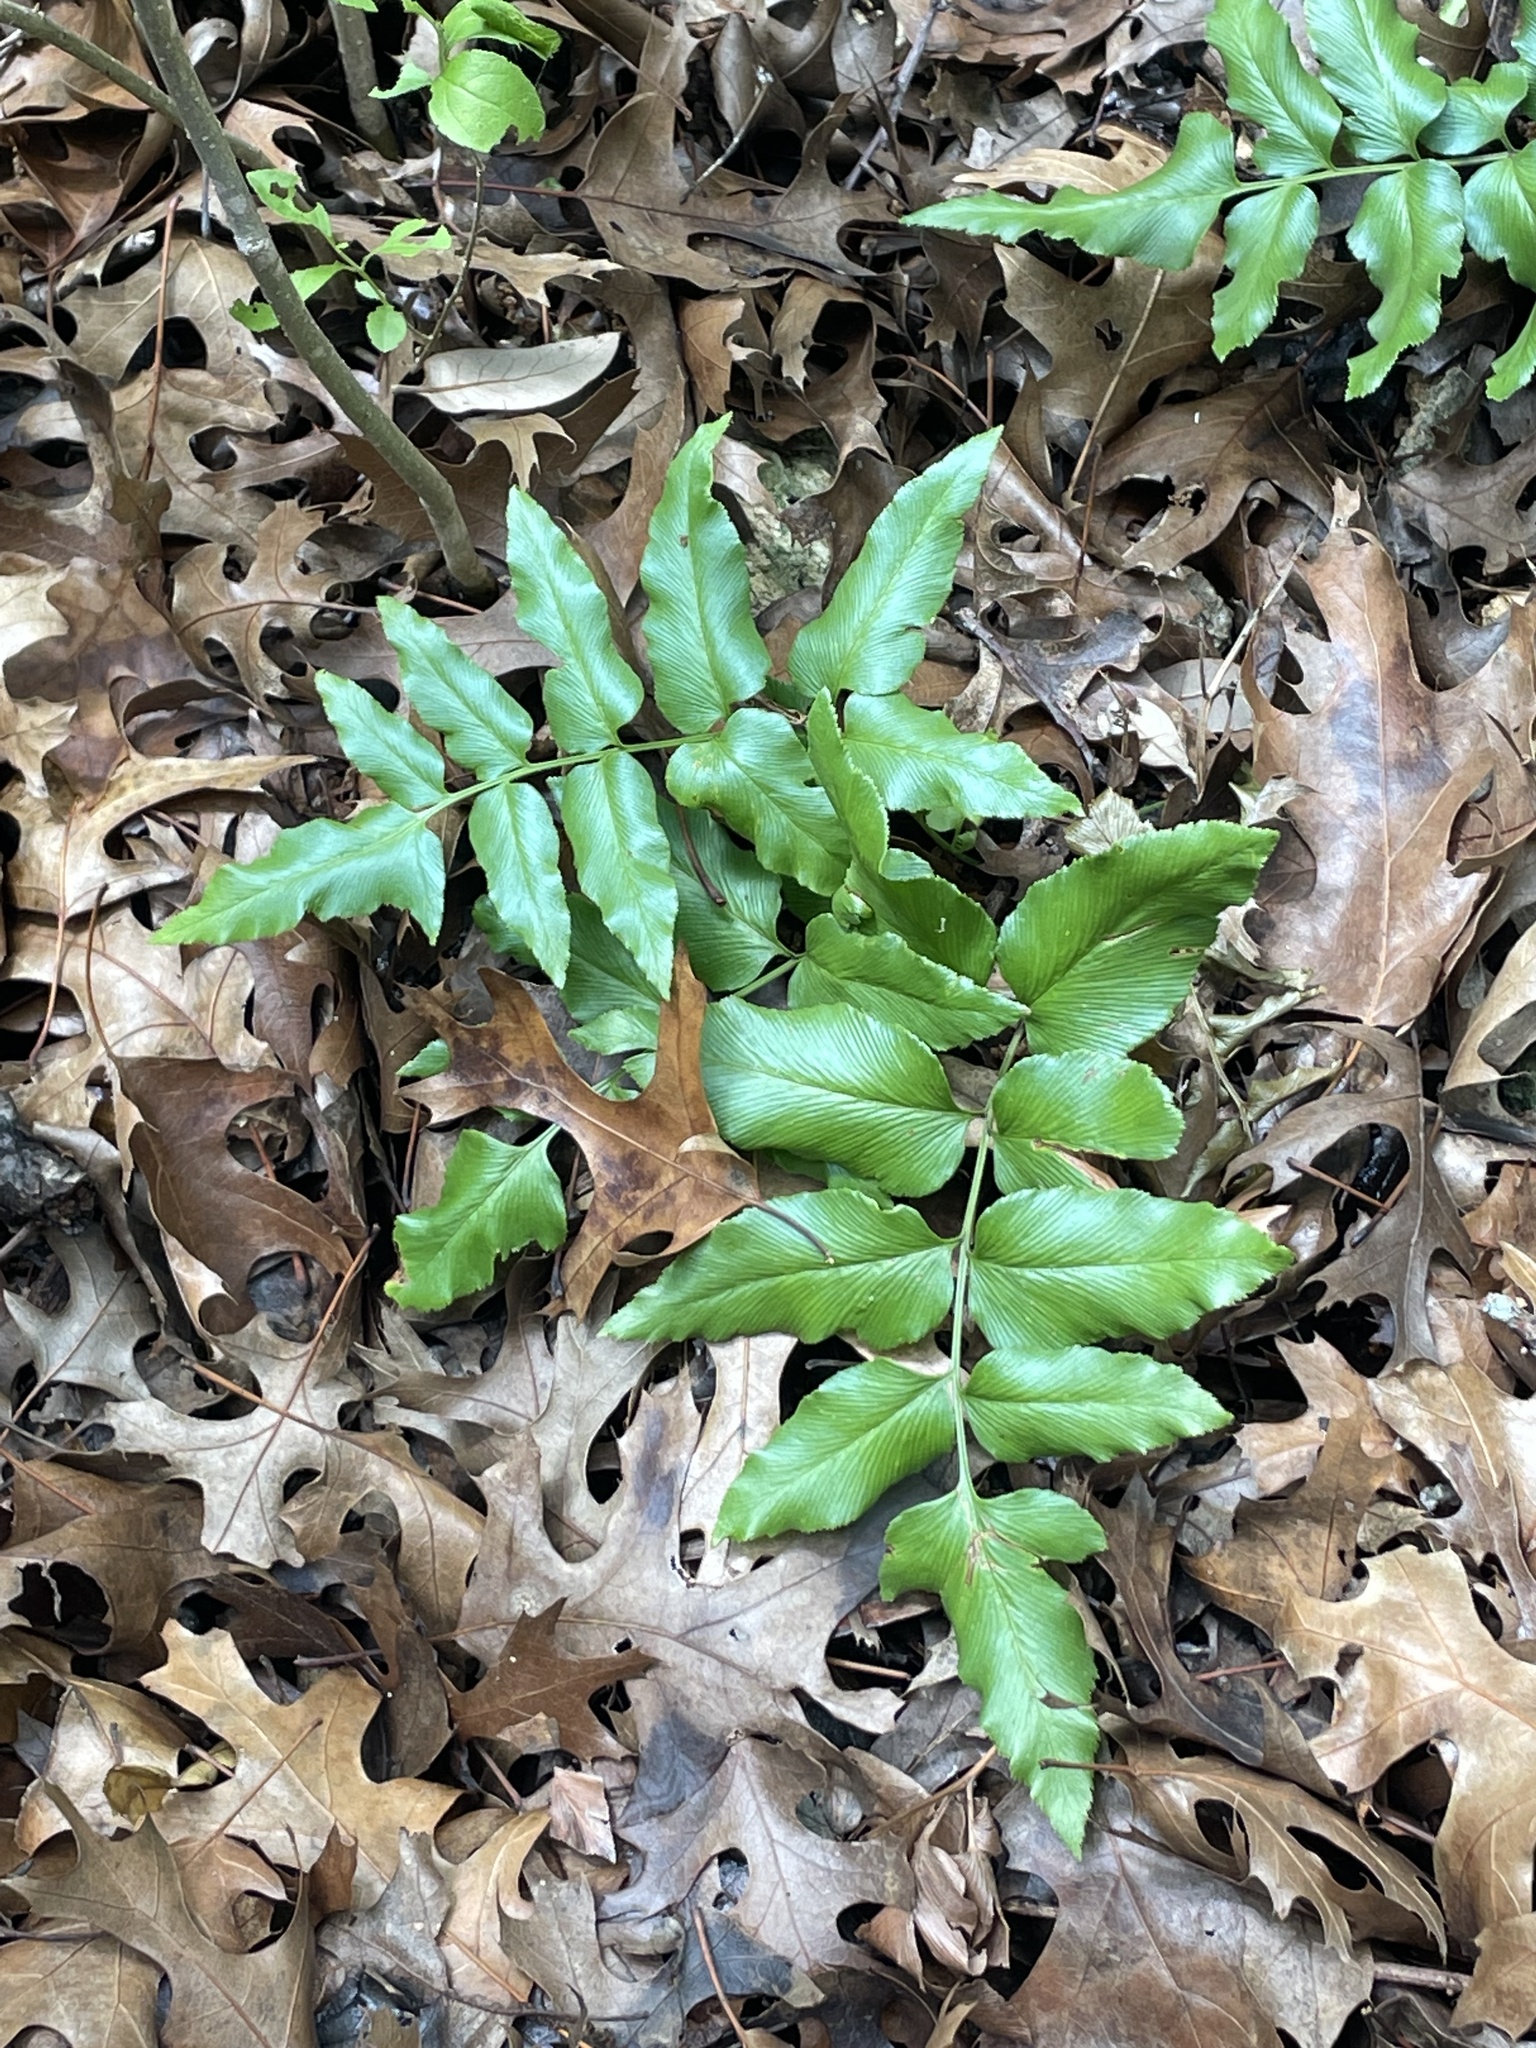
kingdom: Plantae
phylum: Tracheophyta
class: Polypodiopsida
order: Schizaeales
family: Anemiaceae
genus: Anemia
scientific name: Anemia mexicana
